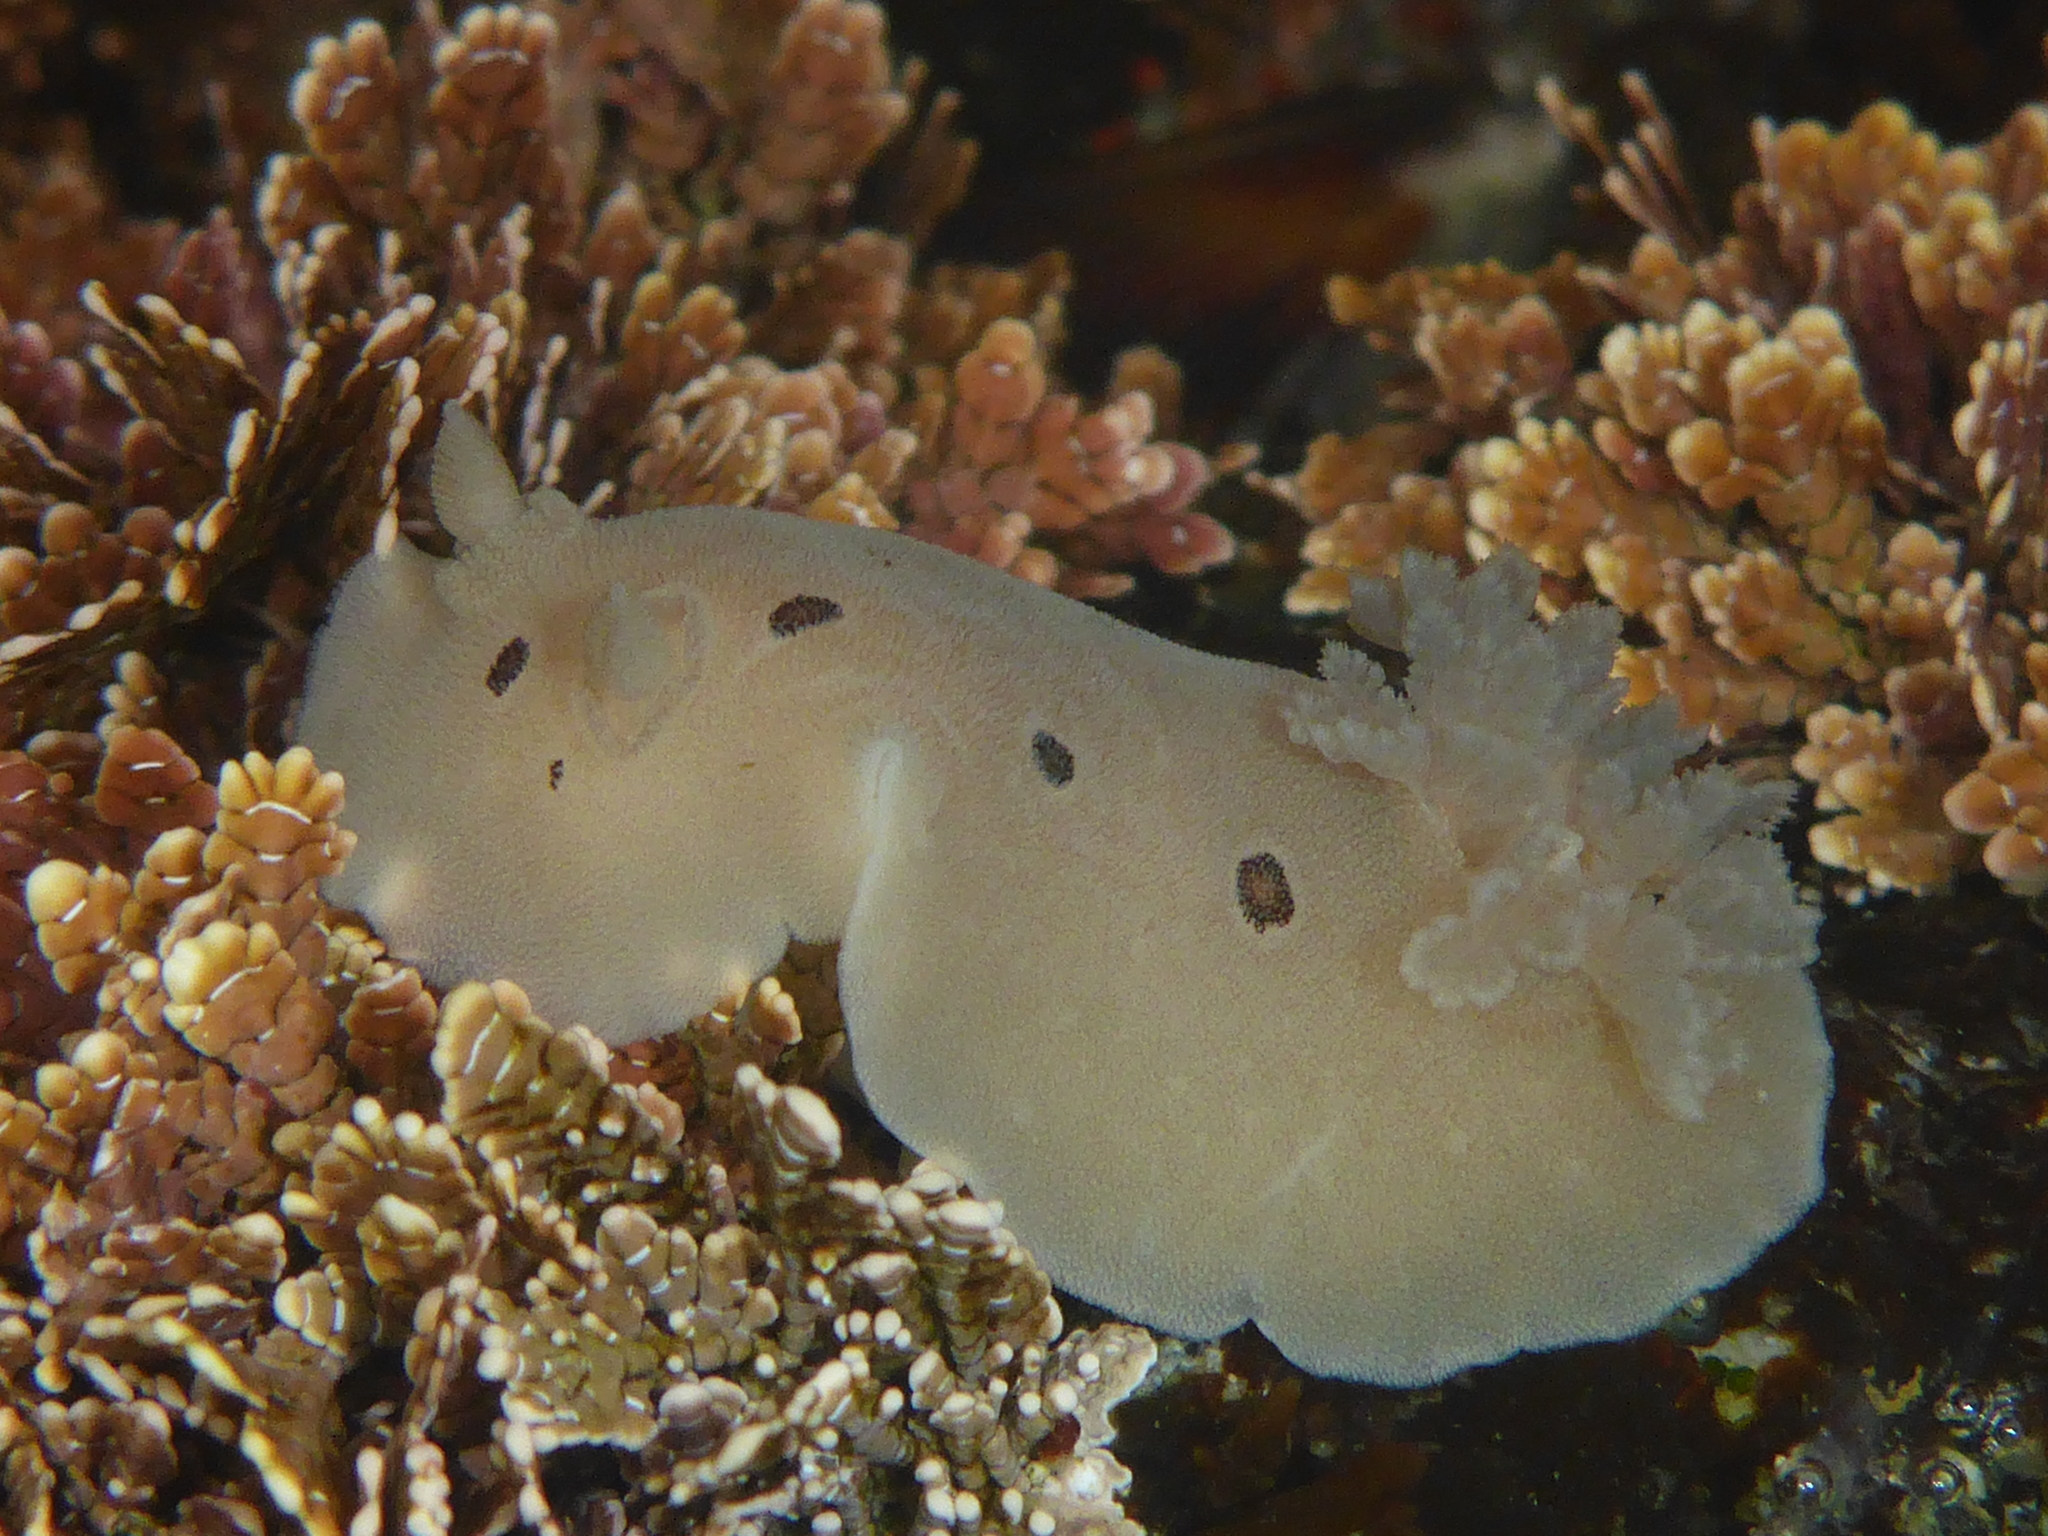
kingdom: Animalia
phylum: Mollusca
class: Gastropoda
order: Nudibranchia
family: Discodorididae
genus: Diaulula
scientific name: Diaulula sandiegensis
